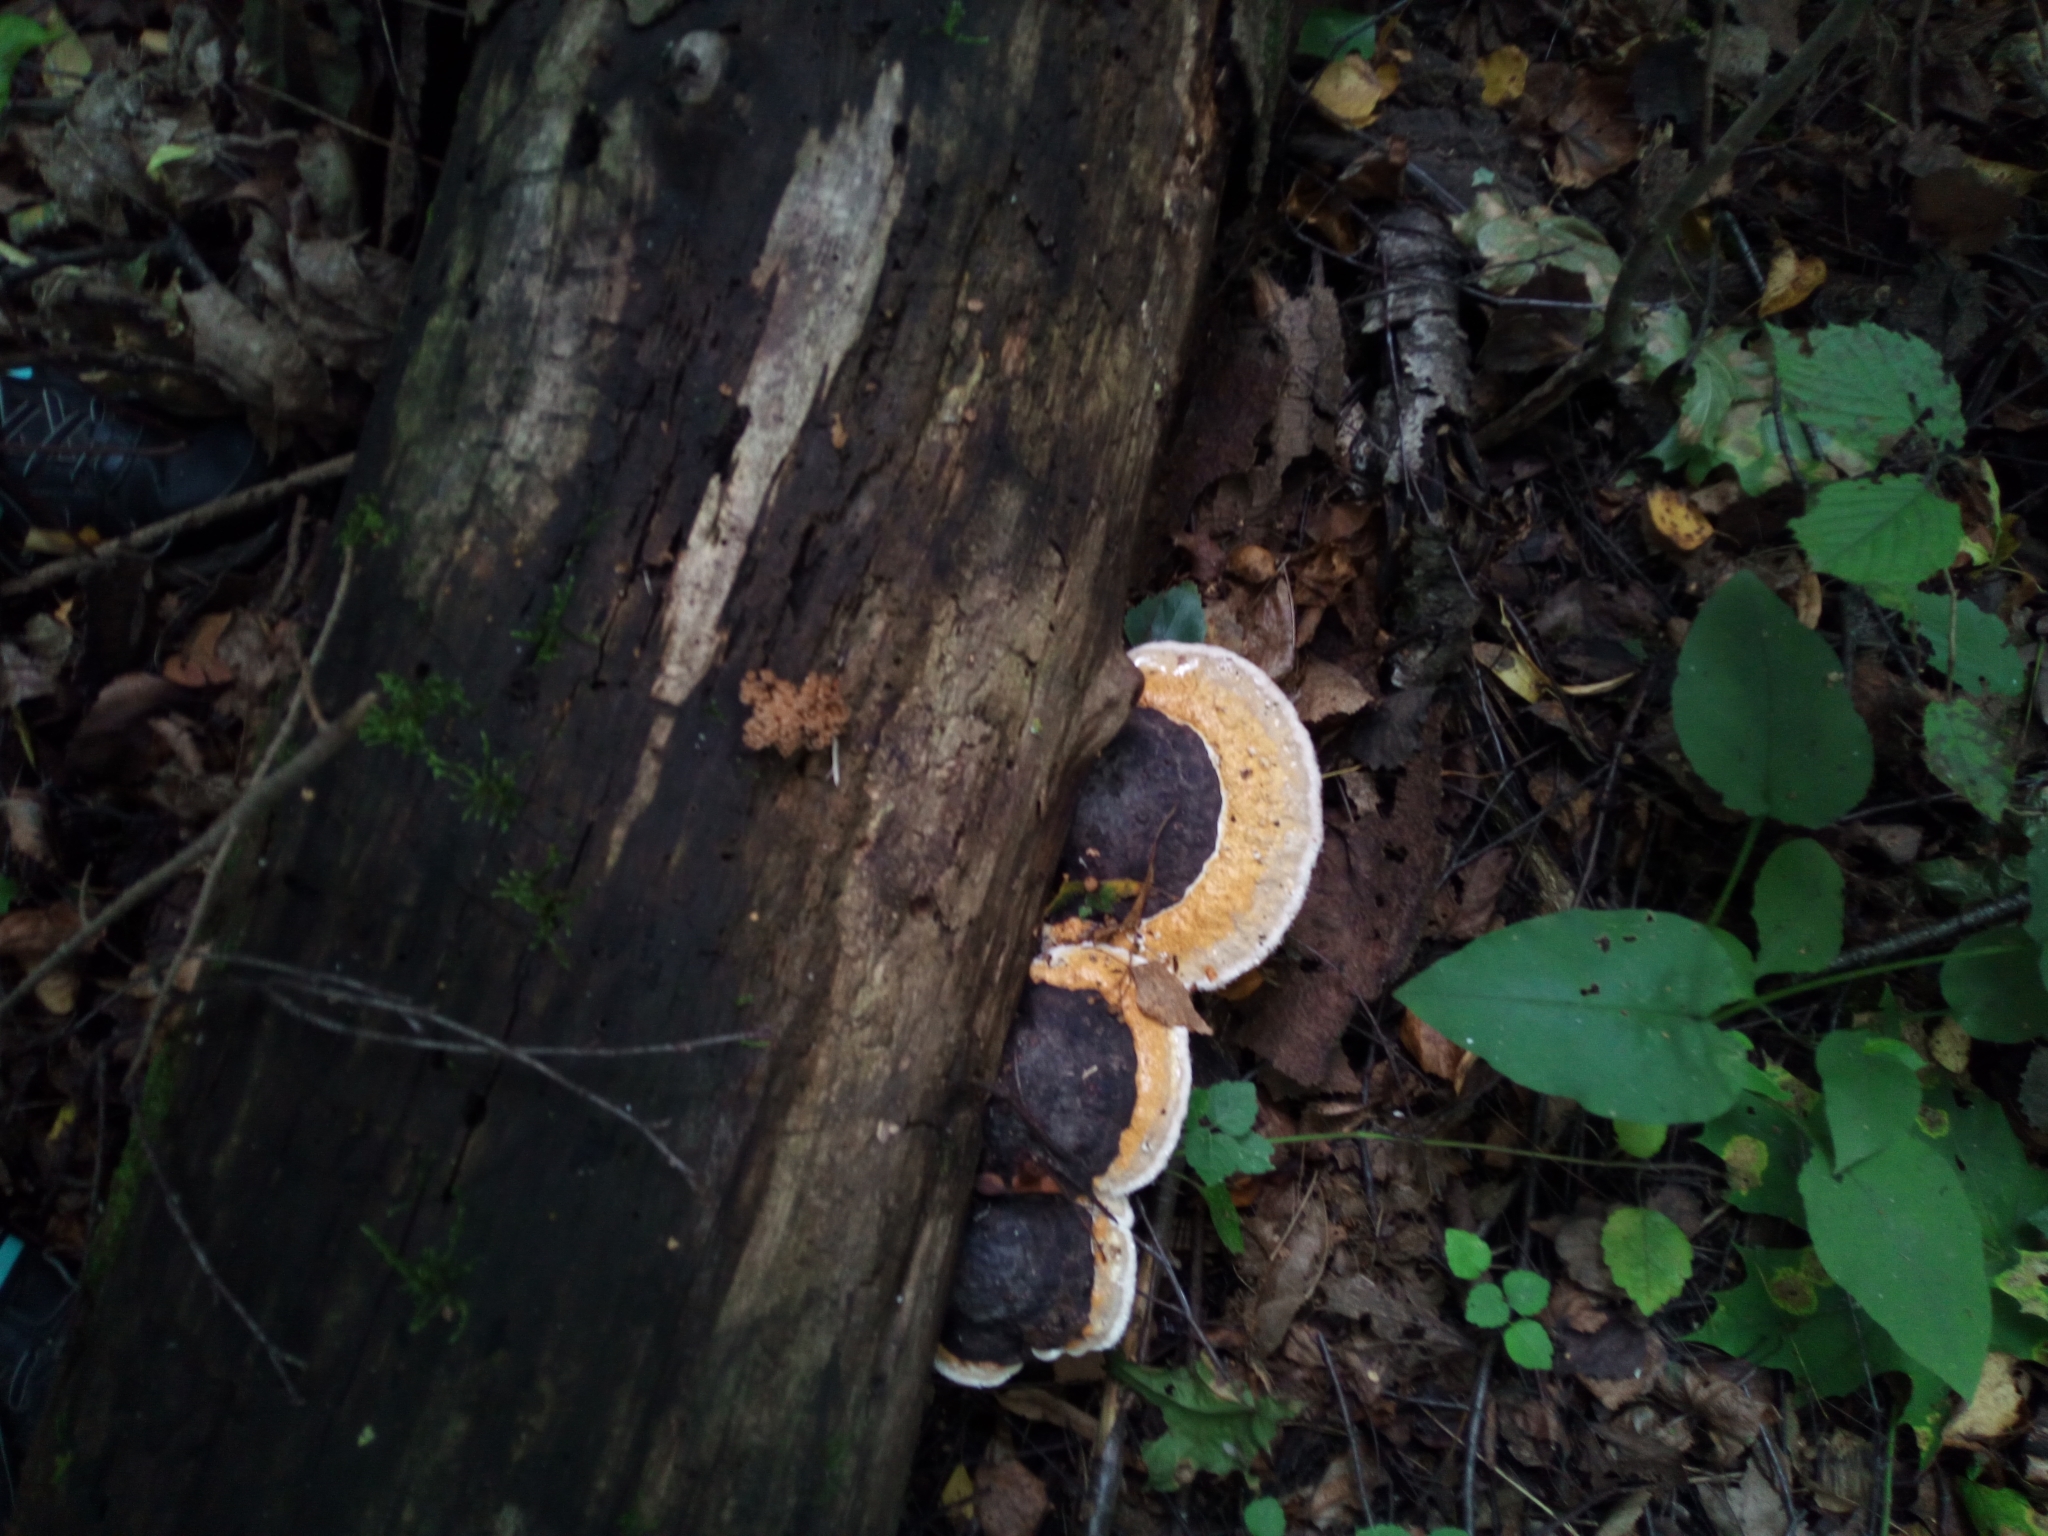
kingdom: Fungi
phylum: Basidiomycota
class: Agaricomycetes
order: Polyporales
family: Fomitopsidaceae
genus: Fomitopsis
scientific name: Fomitopsis pinicola
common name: Red-belted bracket
